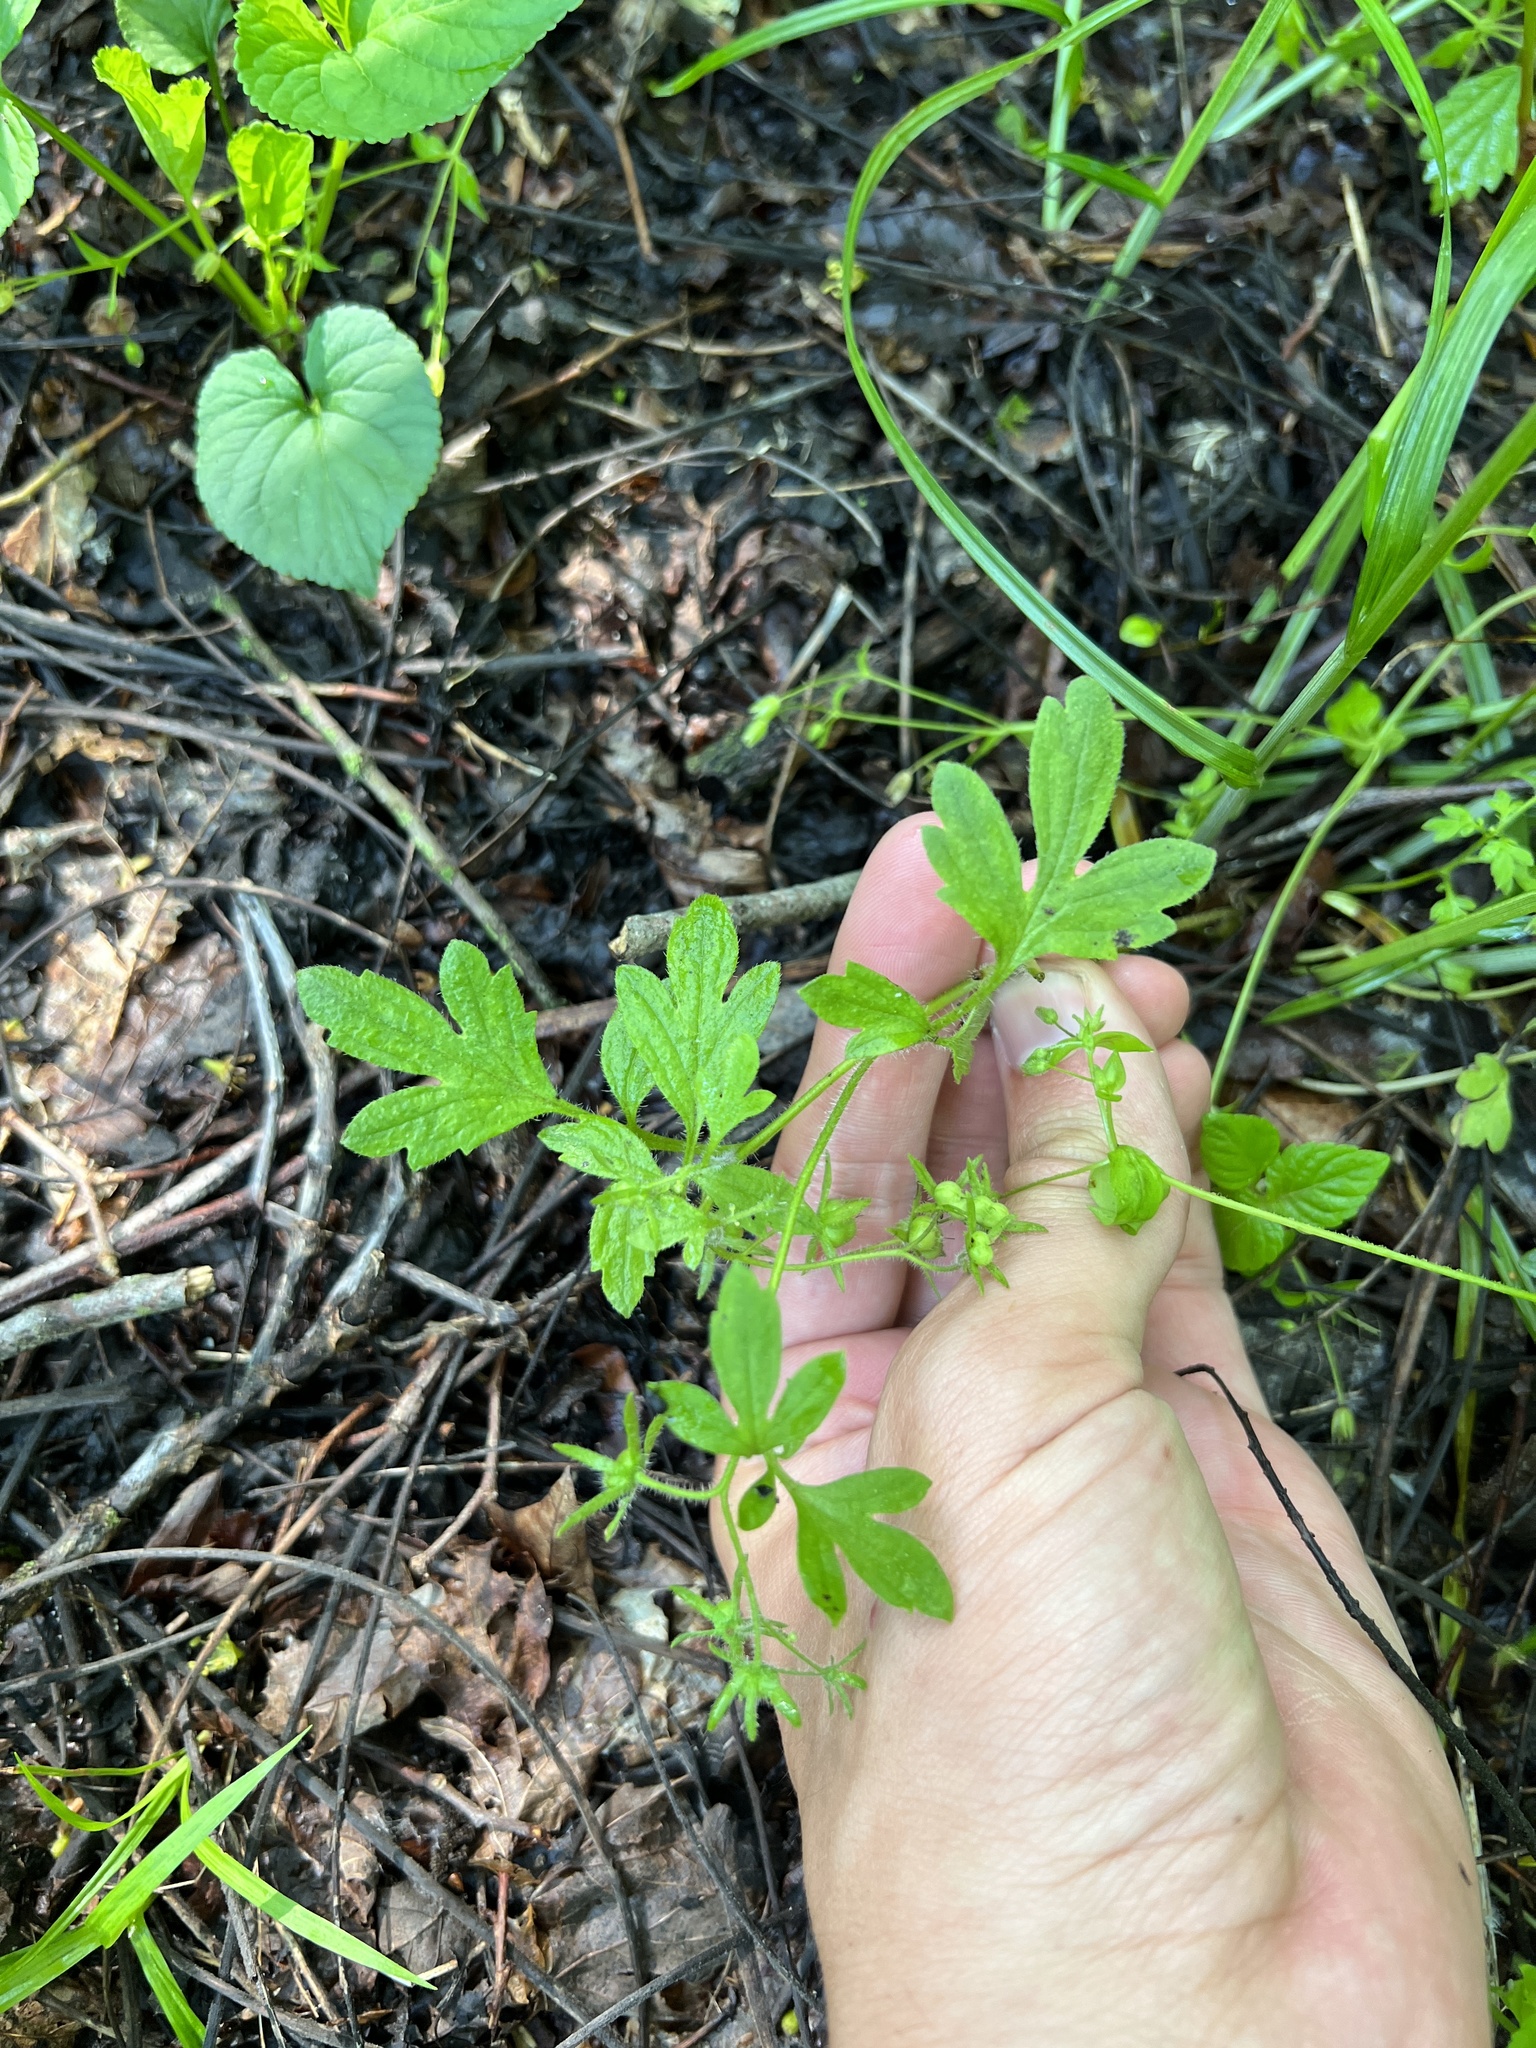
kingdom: Plantae
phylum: Tracheophyta
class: Magnoliopsida
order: Boraginales
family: Hydrophyllaceae
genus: Phacelia
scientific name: Phacelia covillei
